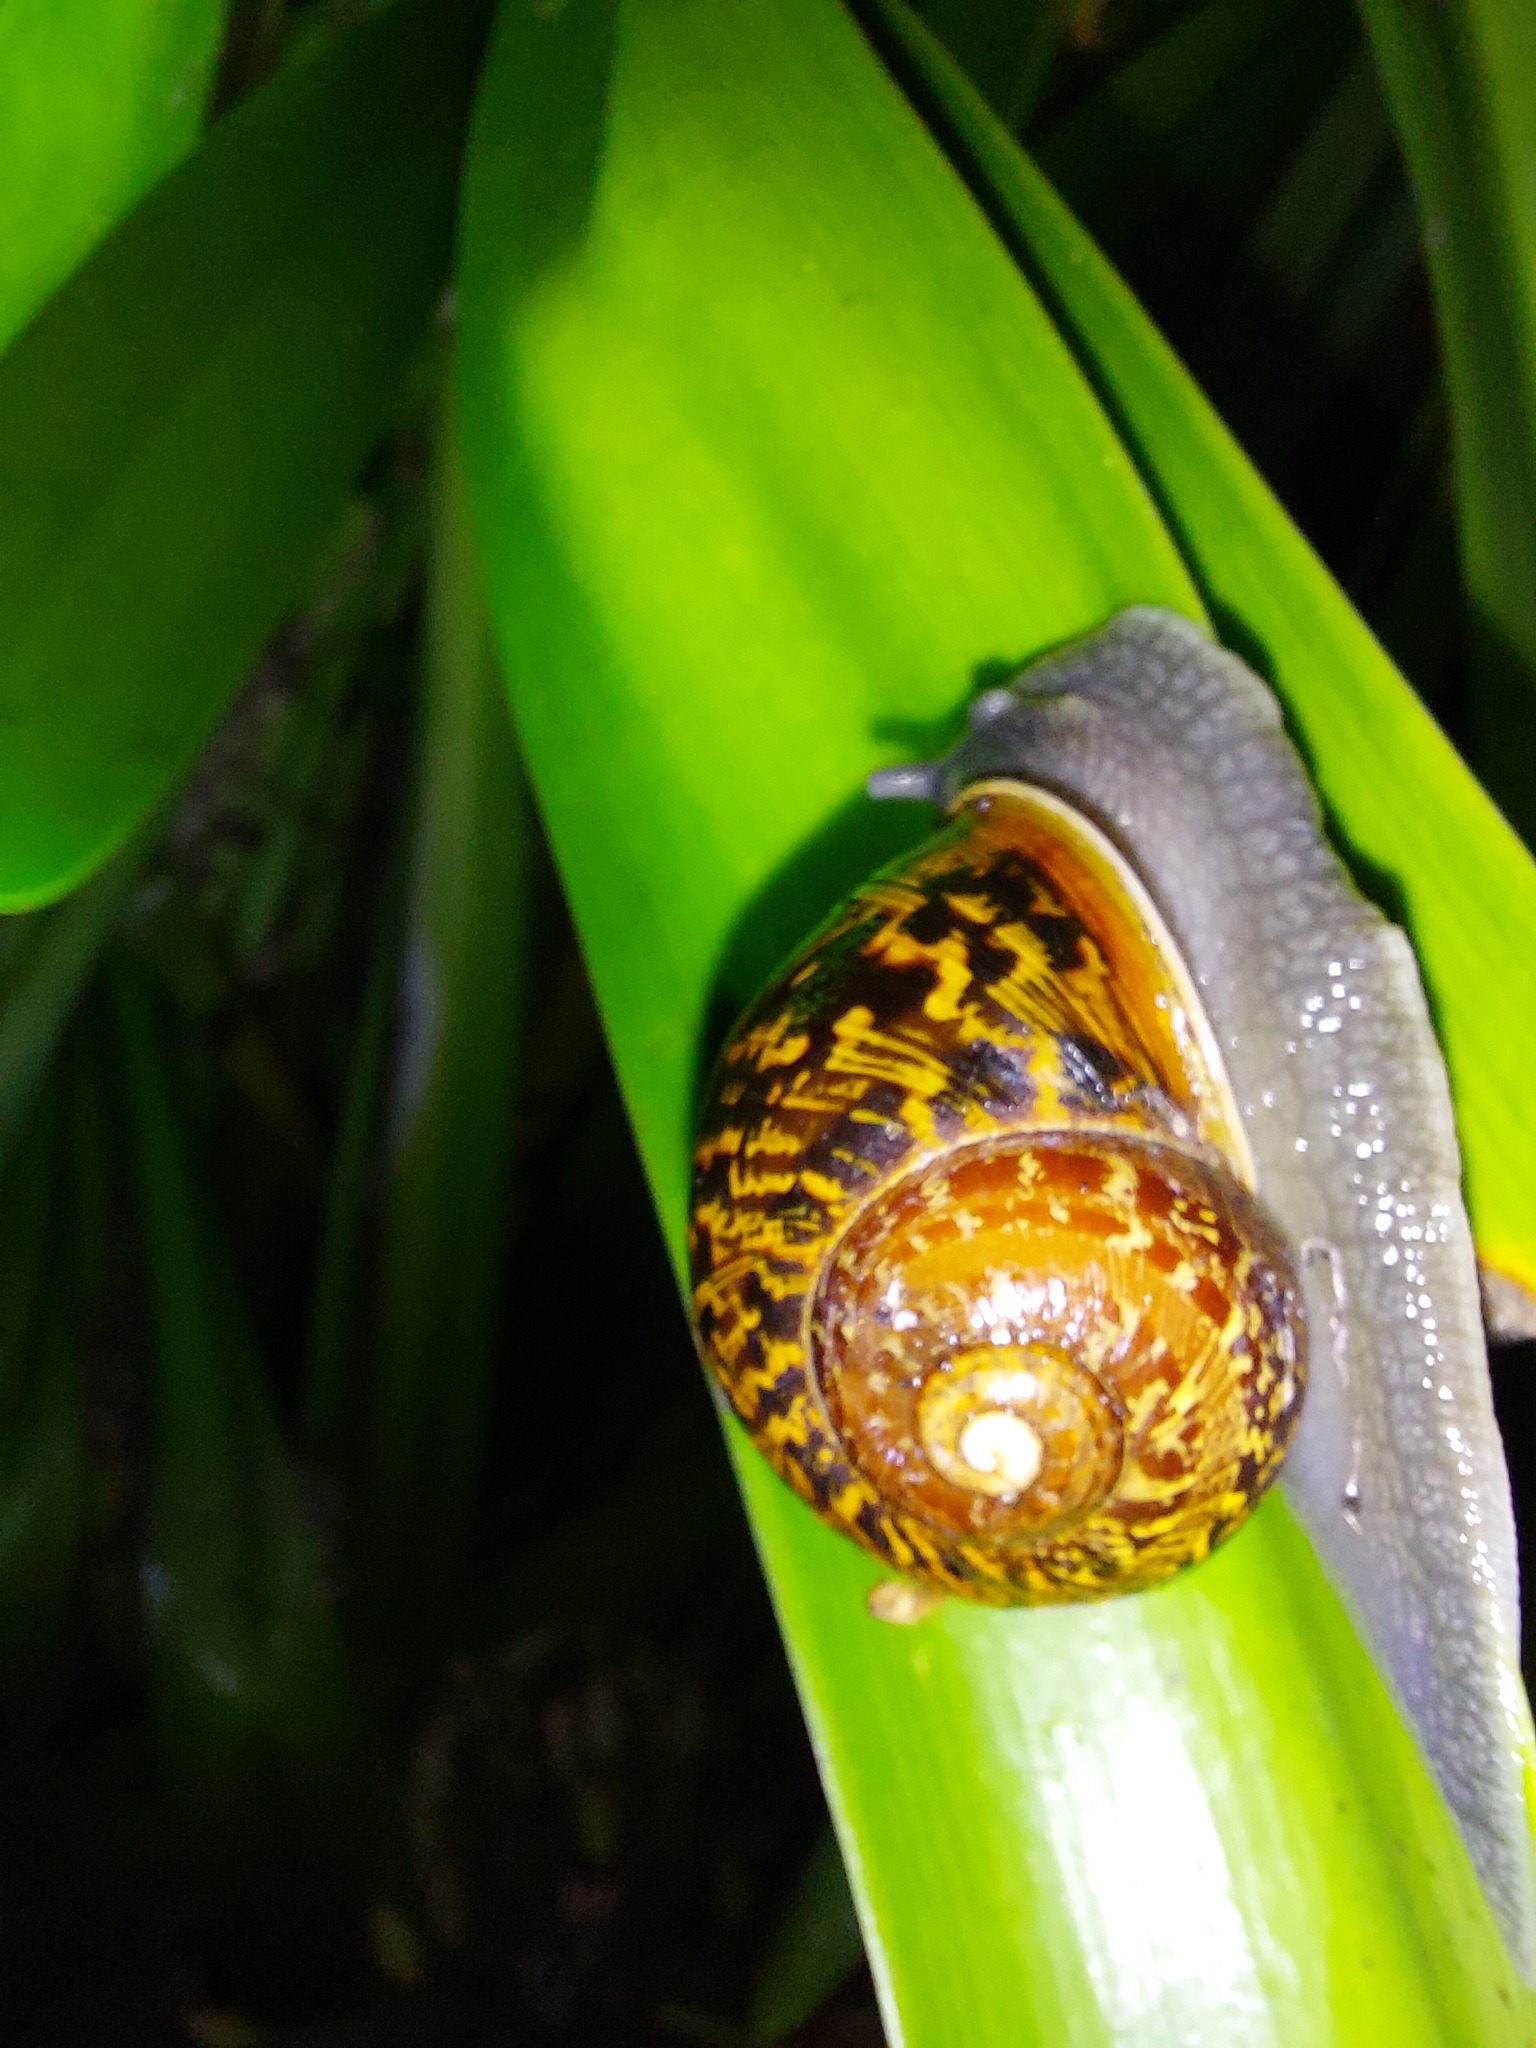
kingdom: Animalia
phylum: Mollusca
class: Gastropoda
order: Stylommatophora
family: Helicidae
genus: Cornu
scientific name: Cornu aspersum
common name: Brown garden snail
